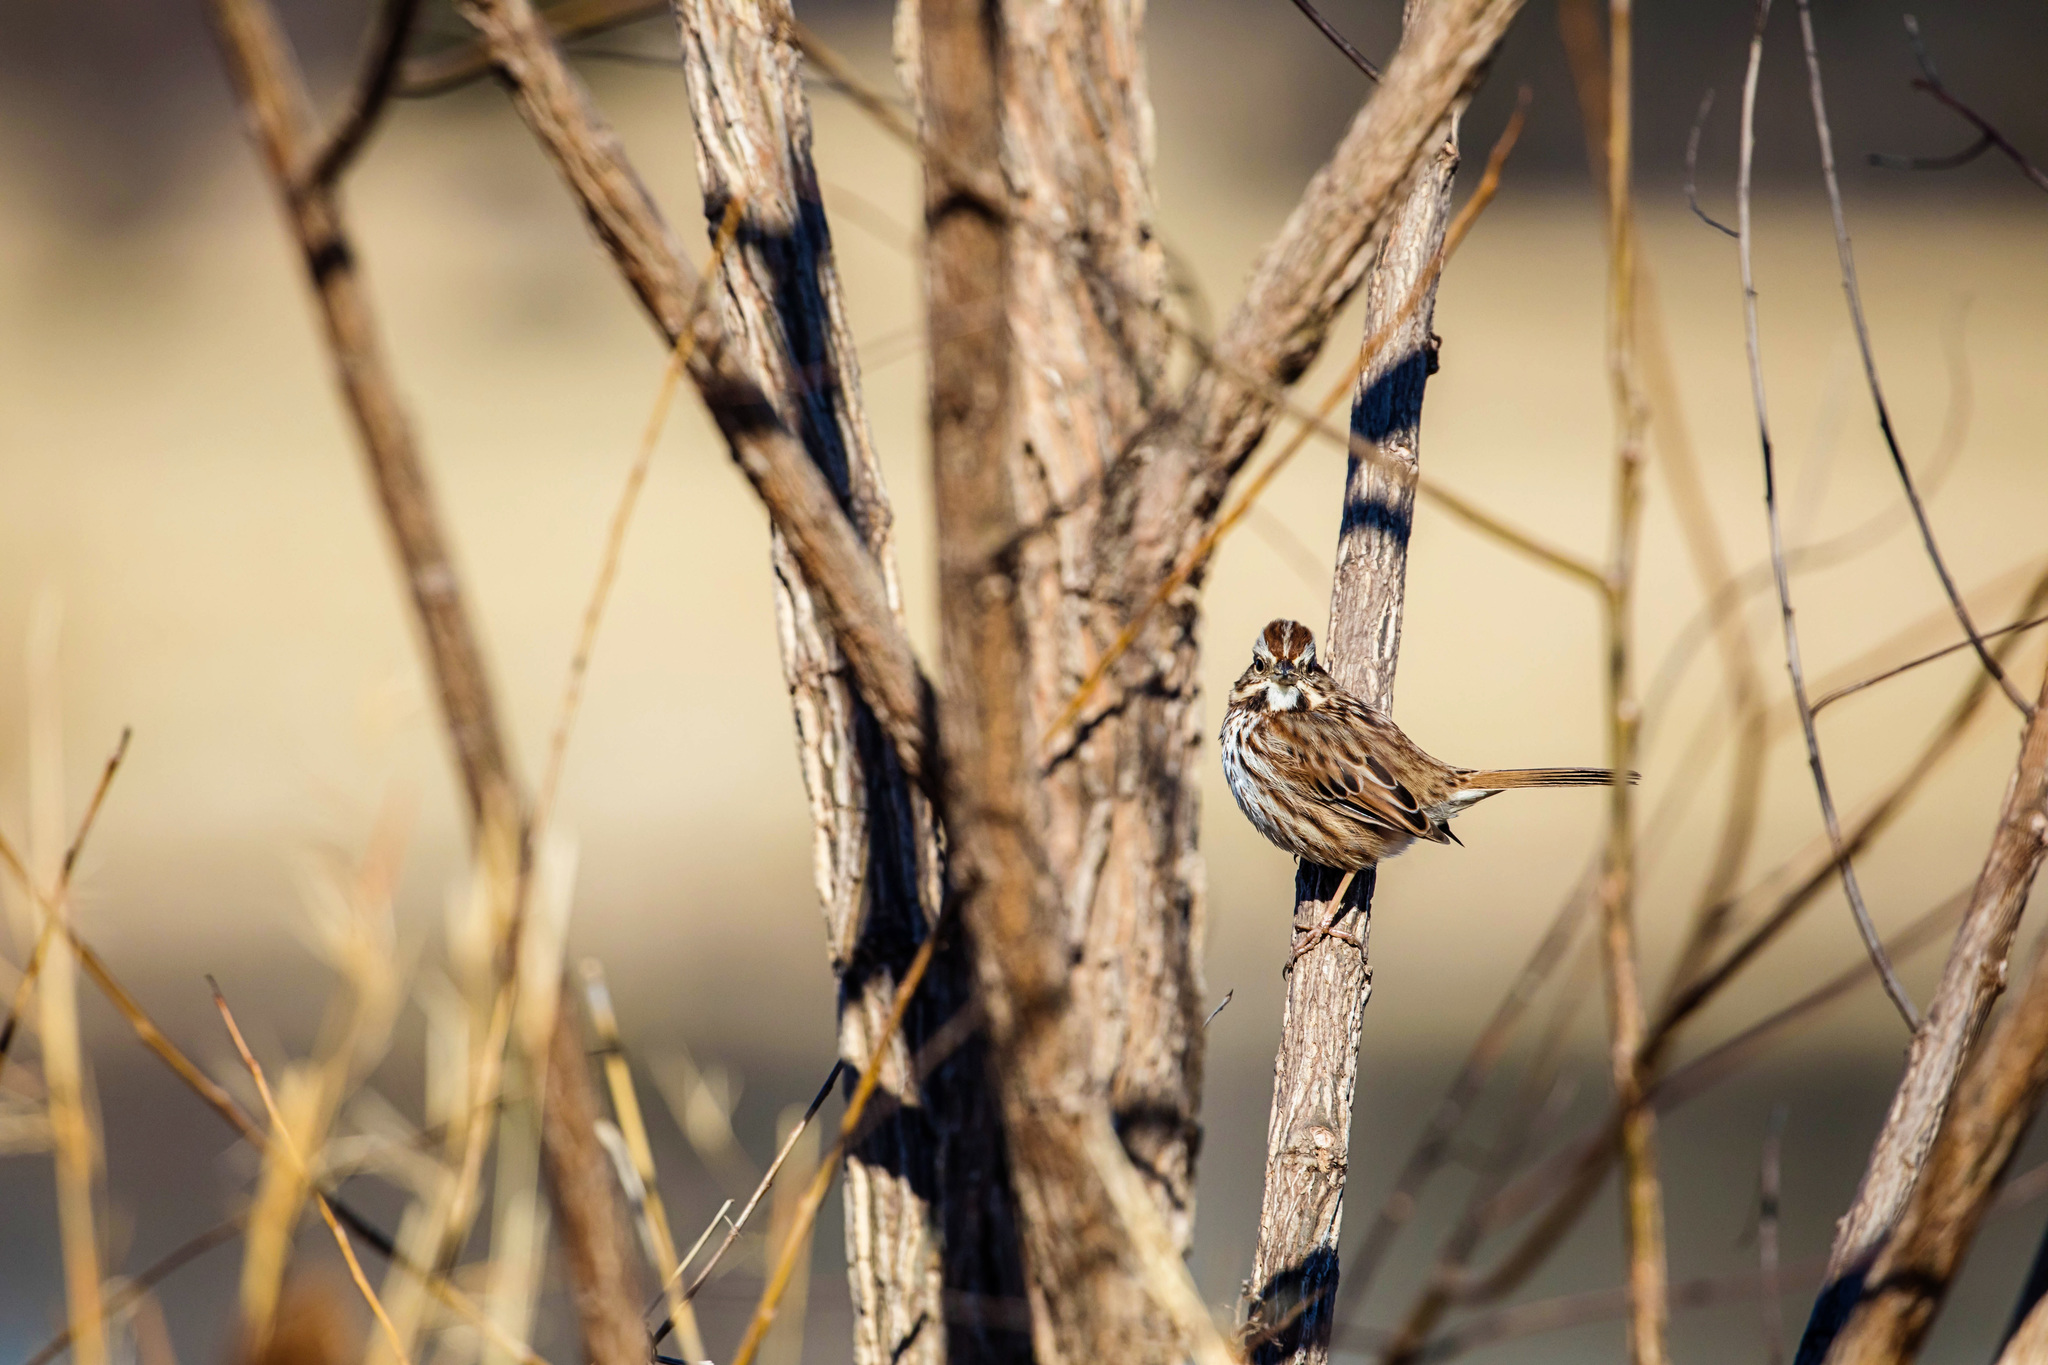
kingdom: Animalia
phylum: Chordata
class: Aves
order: Passeriformes
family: Passerellidae
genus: Melospiza
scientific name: Melospiza melodia
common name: Song sparrow
